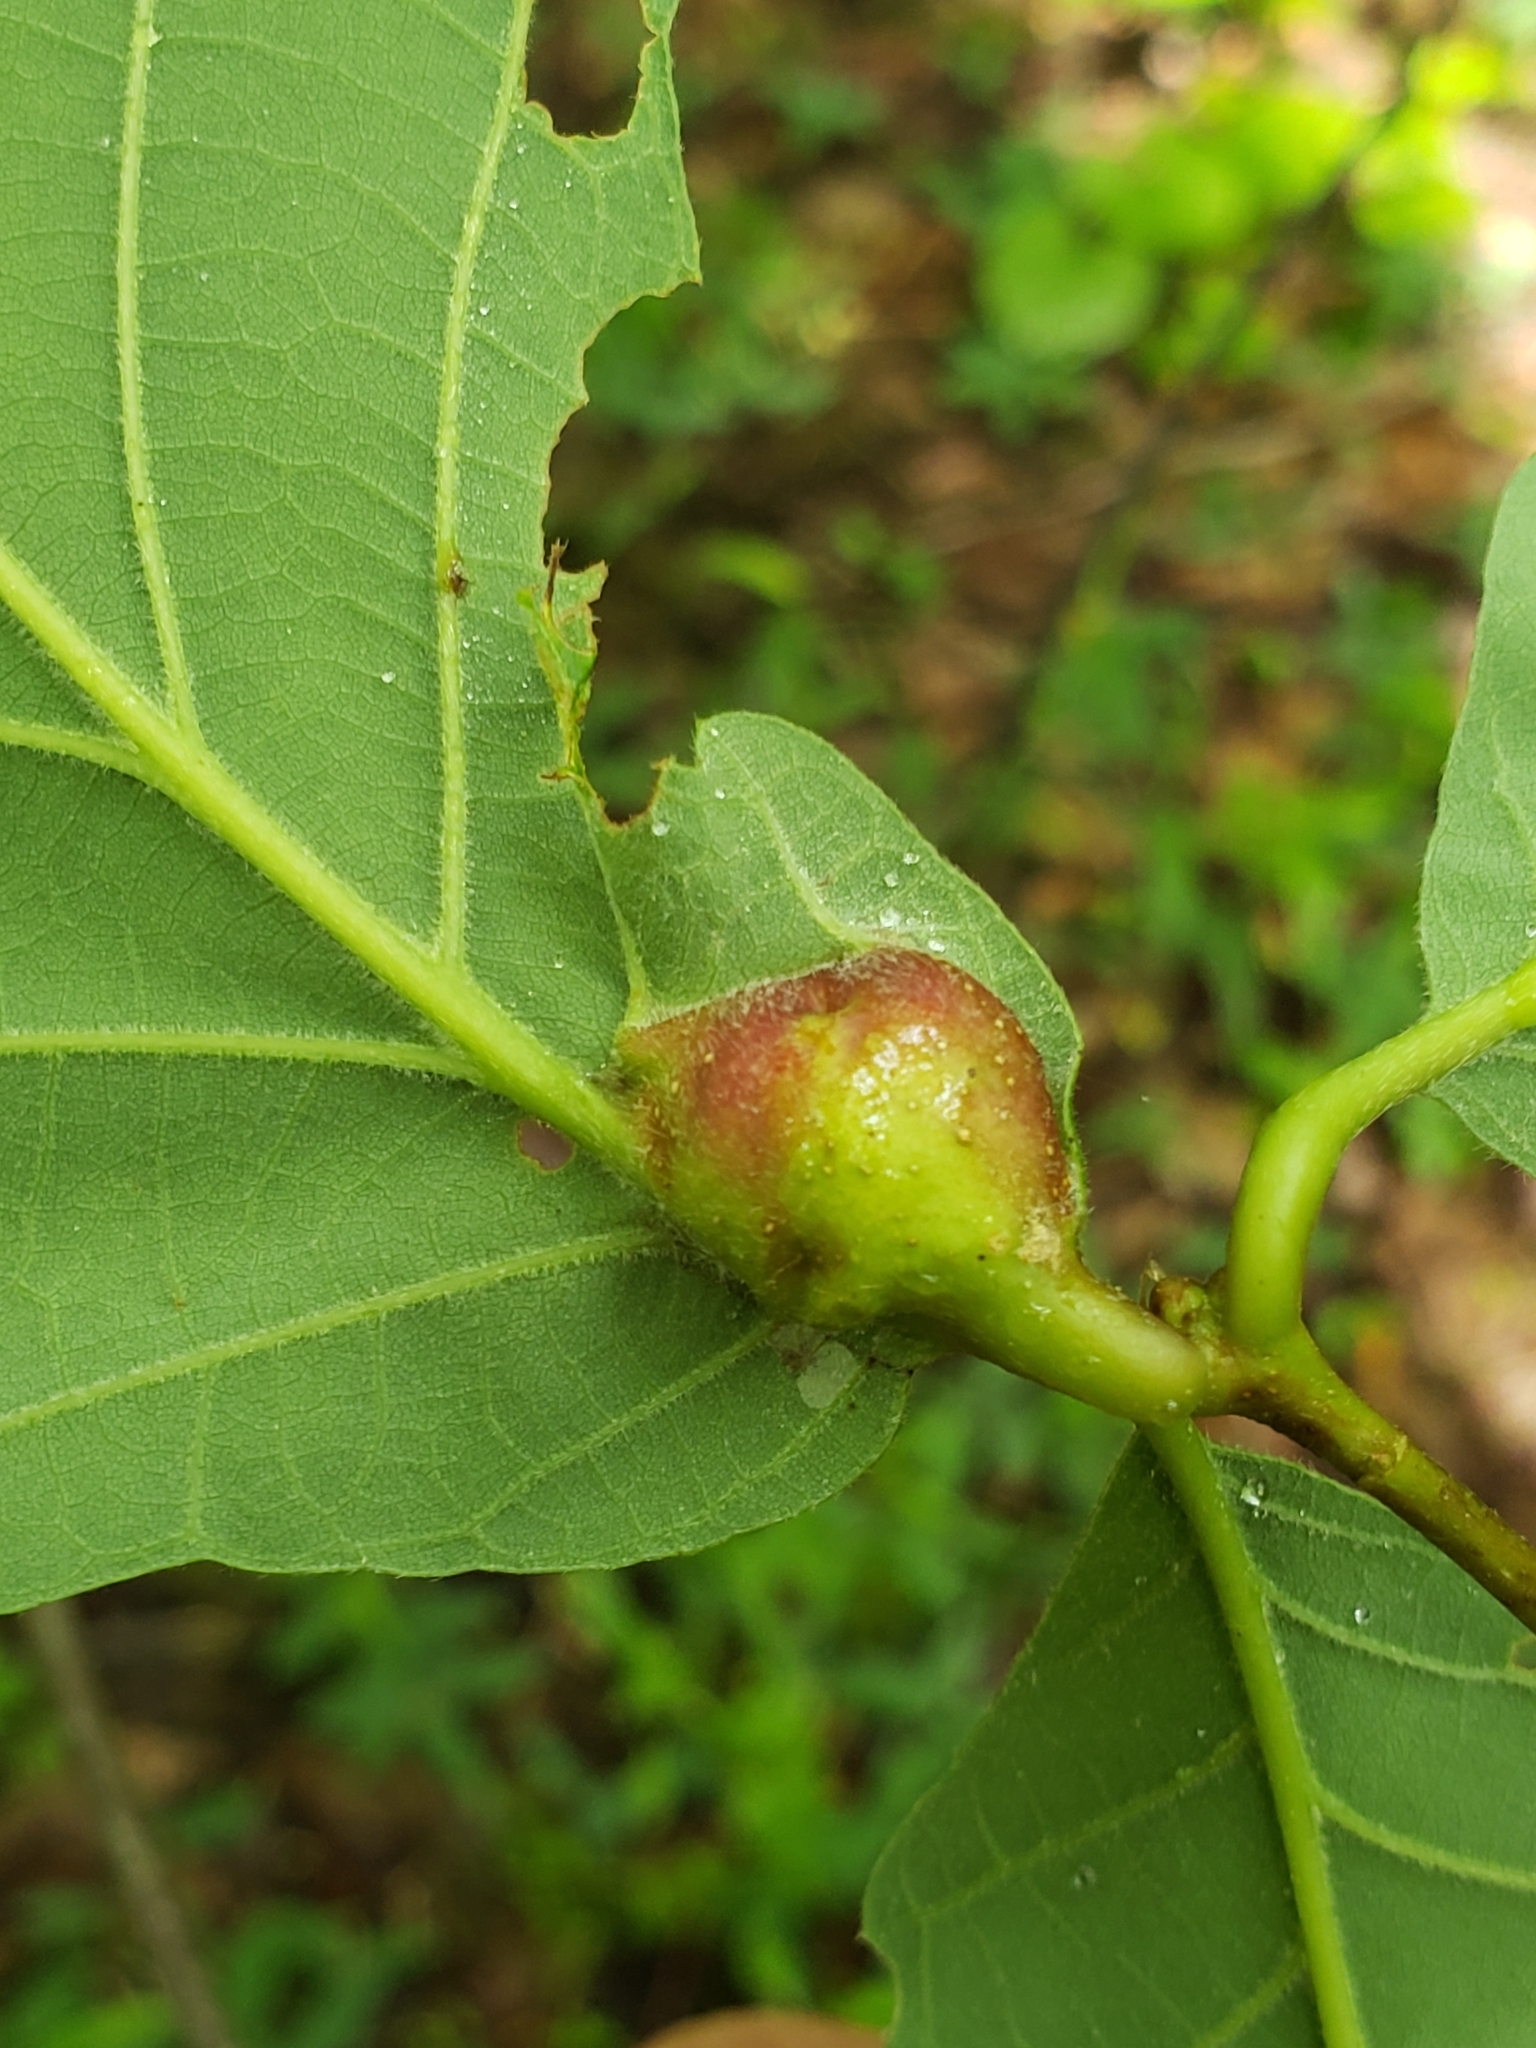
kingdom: Animalia
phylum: Arthropoda
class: Insecta
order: Hymenoptera
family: Cynipidae
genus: Andricus
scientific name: Andricus
